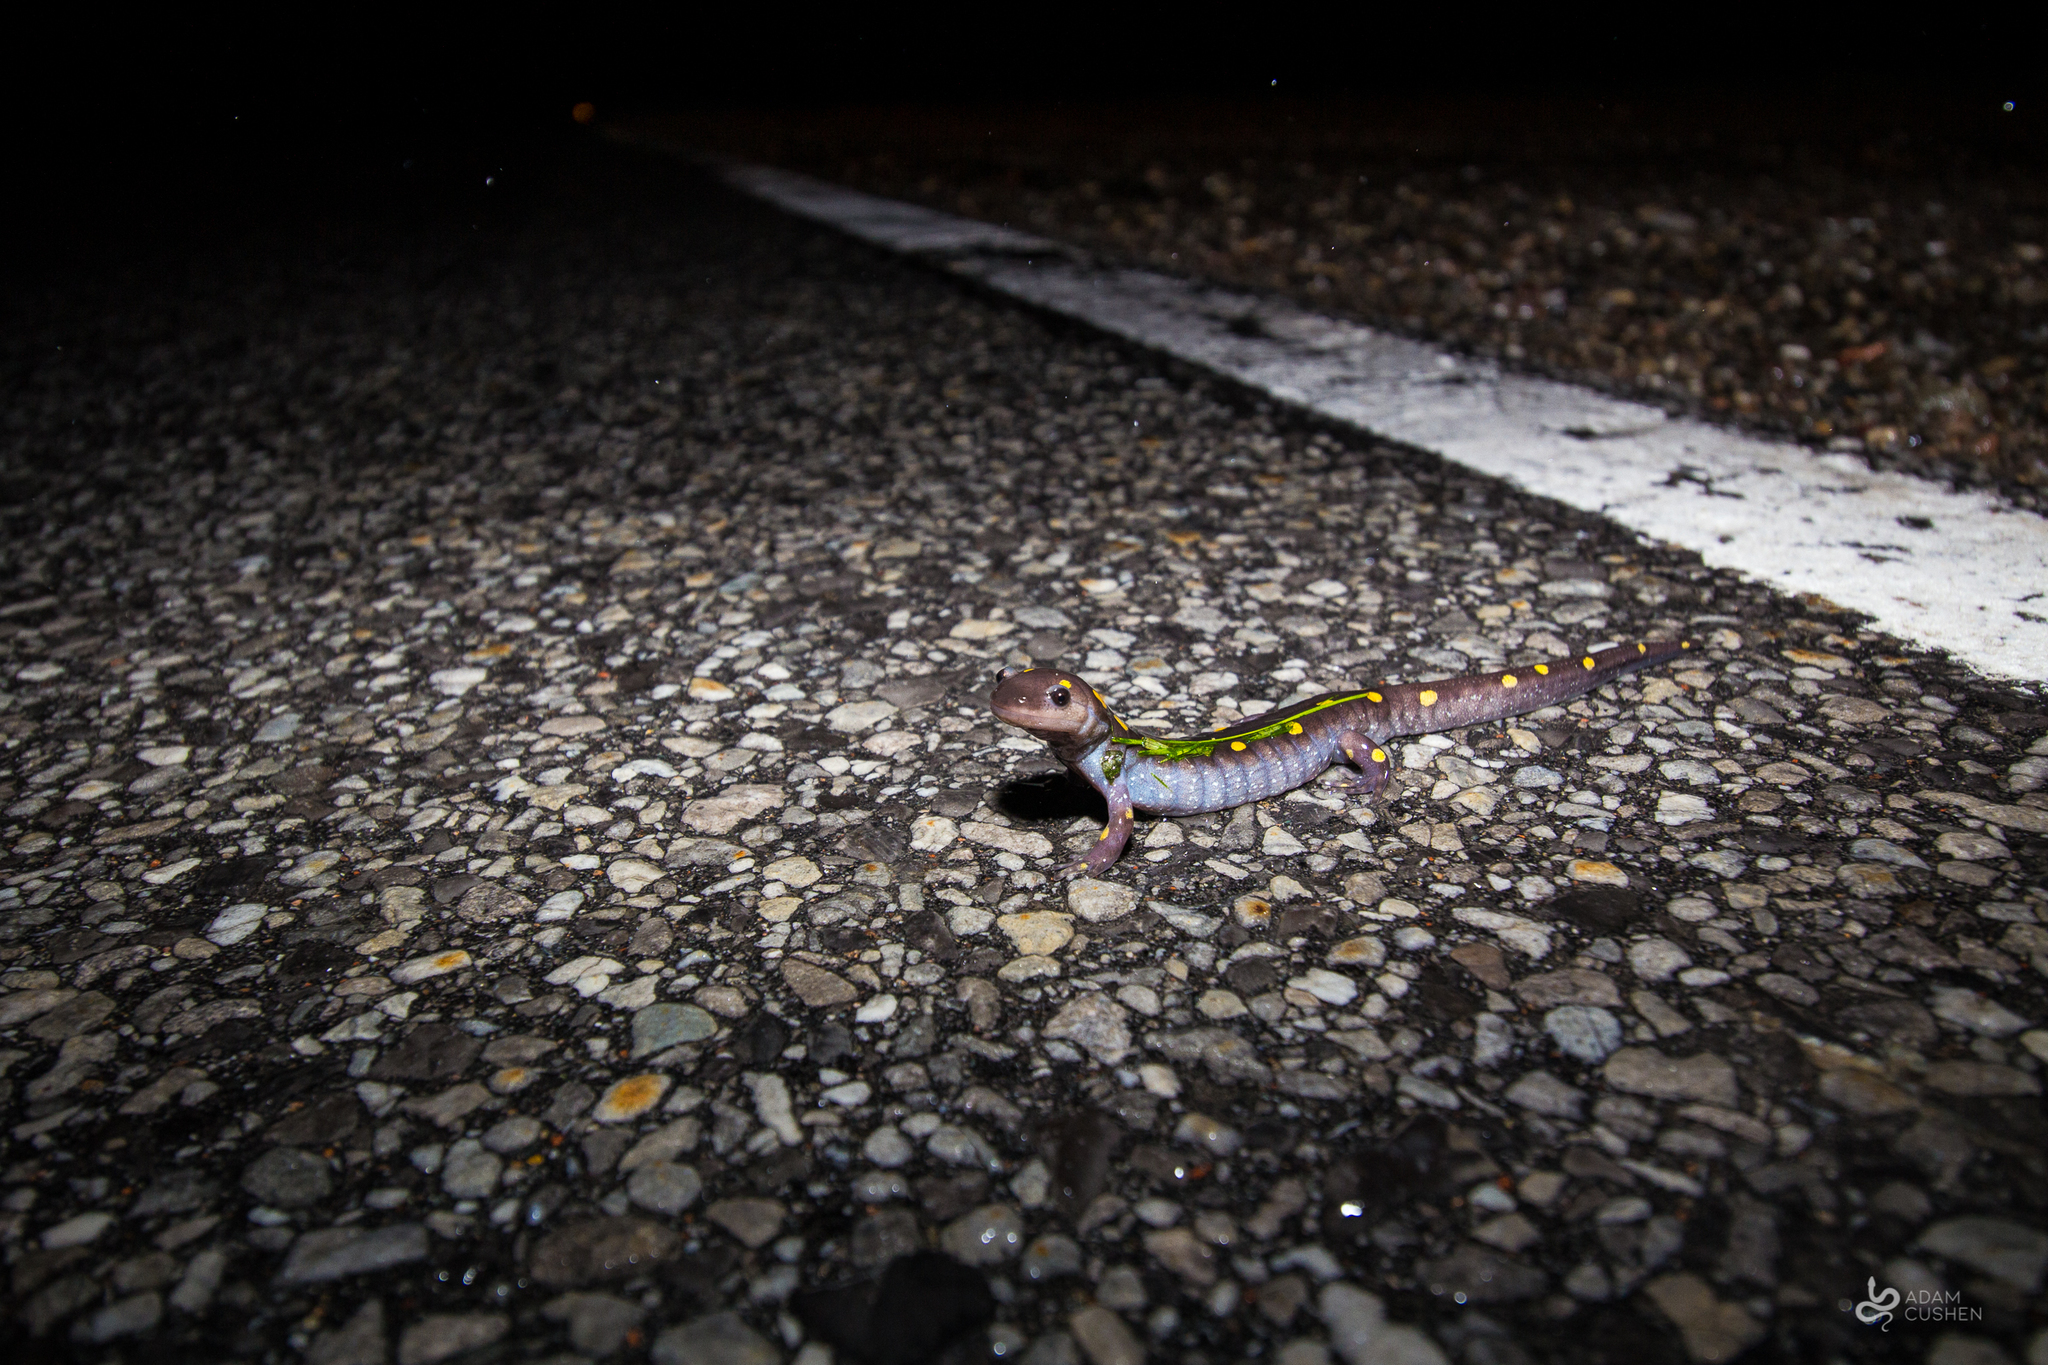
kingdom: Animalia
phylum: Chordata
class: Amphibia
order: Caudata
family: Ambystomatidae
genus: Ambystoma
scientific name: Ambystoma maculatum
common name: Spotted salamander
